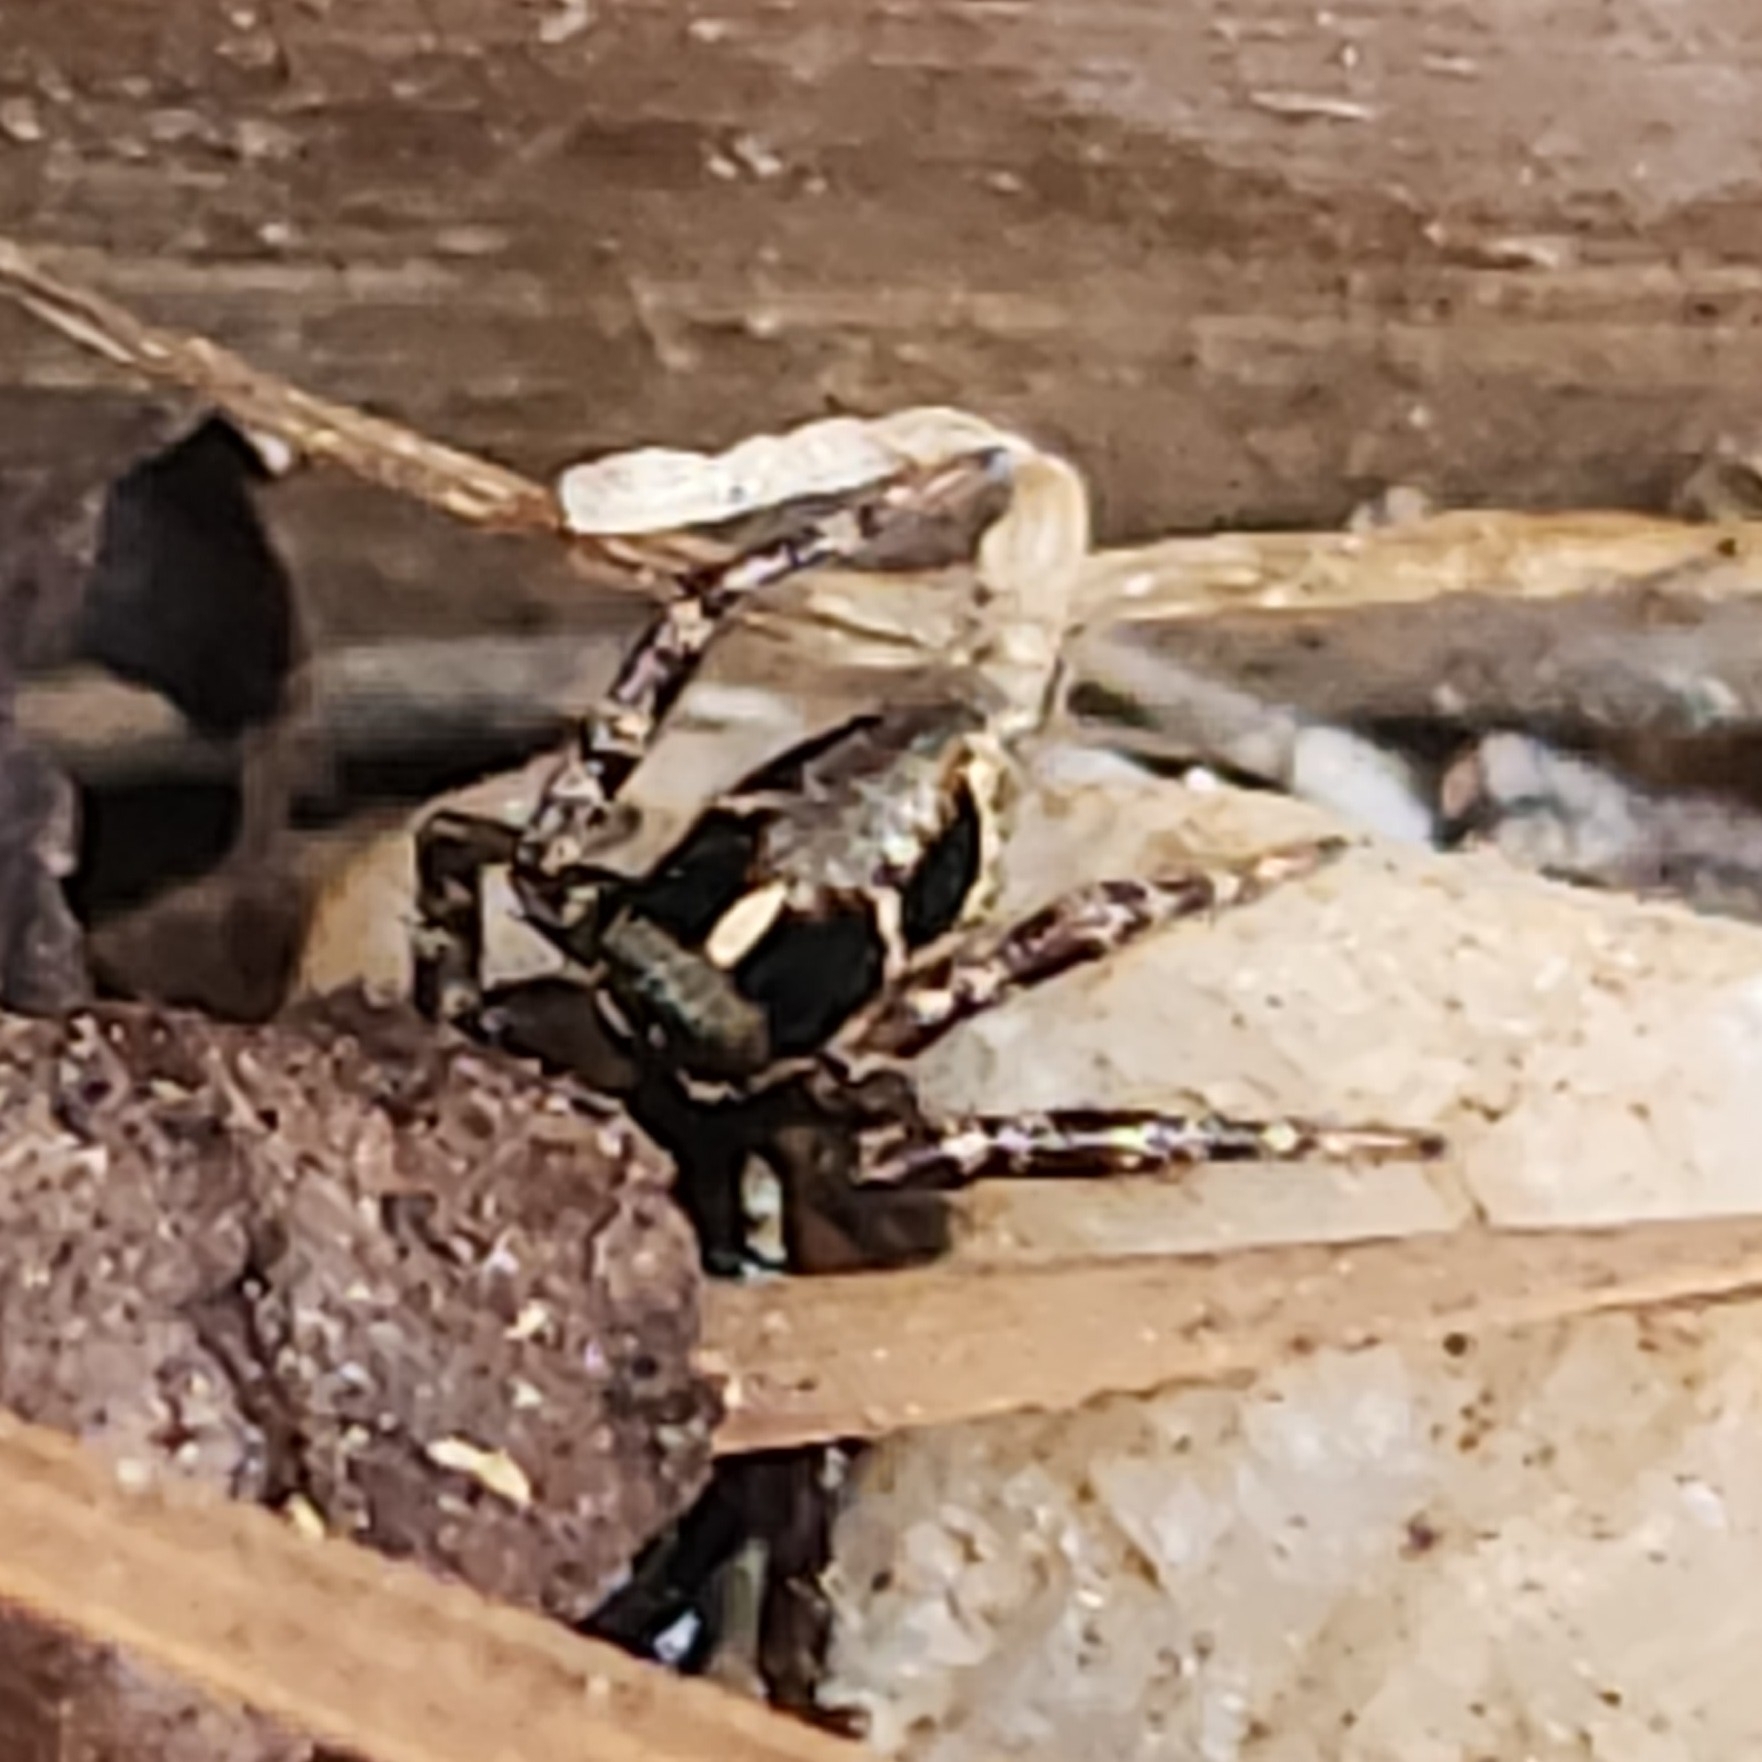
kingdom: Animalia
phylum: Arthropoda
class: Arachnida
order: Araneae
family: Salticidae
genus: Anasaitis
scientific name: Anasaitis canosa
